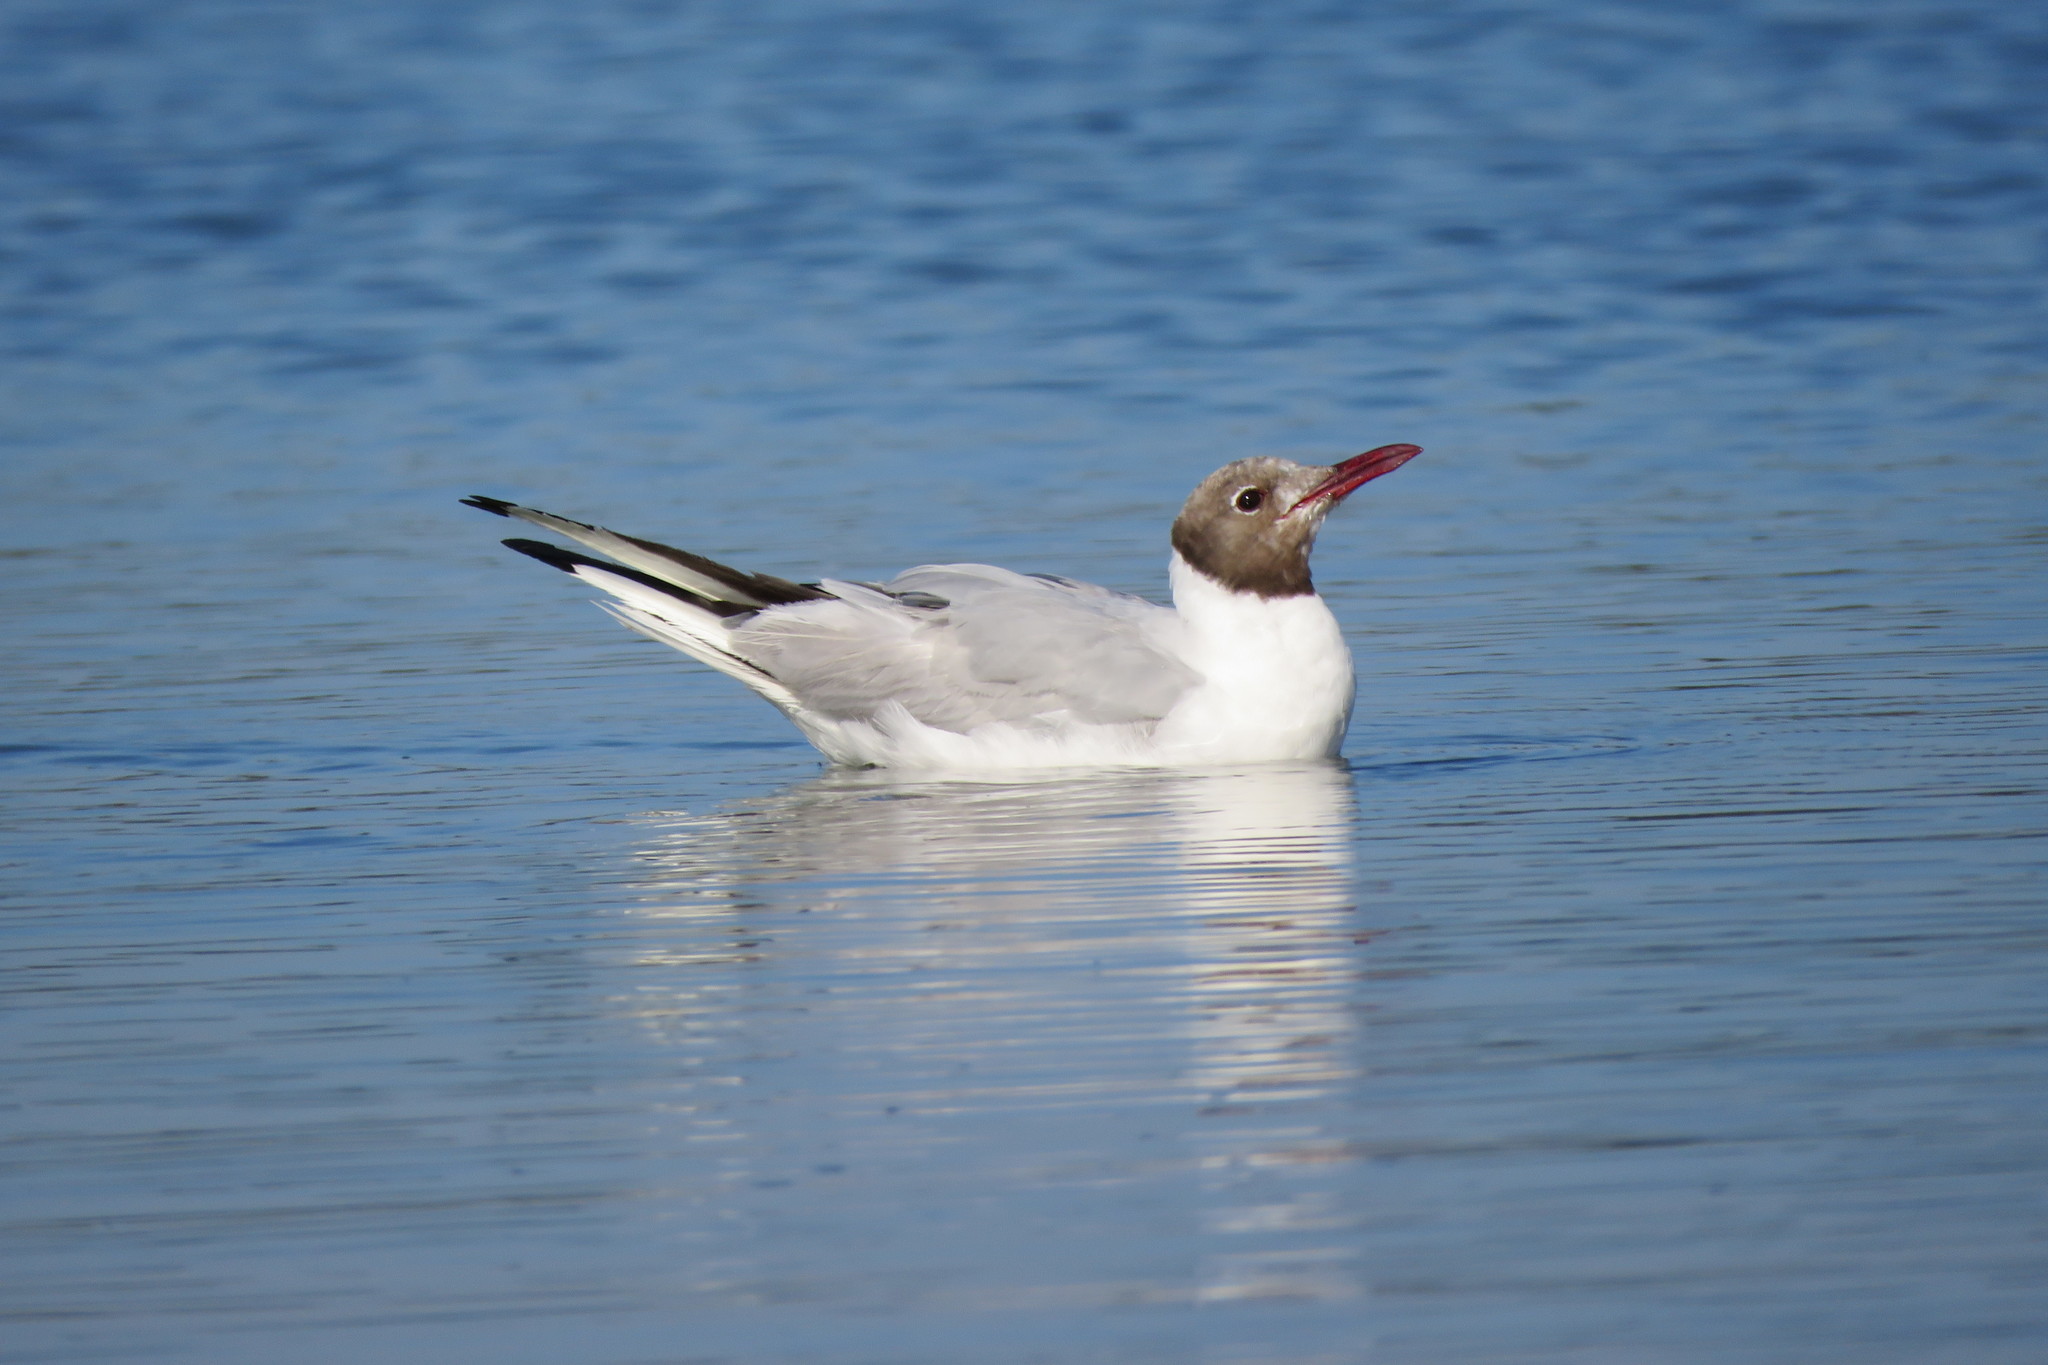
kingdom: Animalia
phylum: Chordata
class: Aves
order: Charadriiformes
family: Laridae
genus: Chroicocephalus
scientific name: Chroicocephalus ridibundus
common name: Black-headed gull
